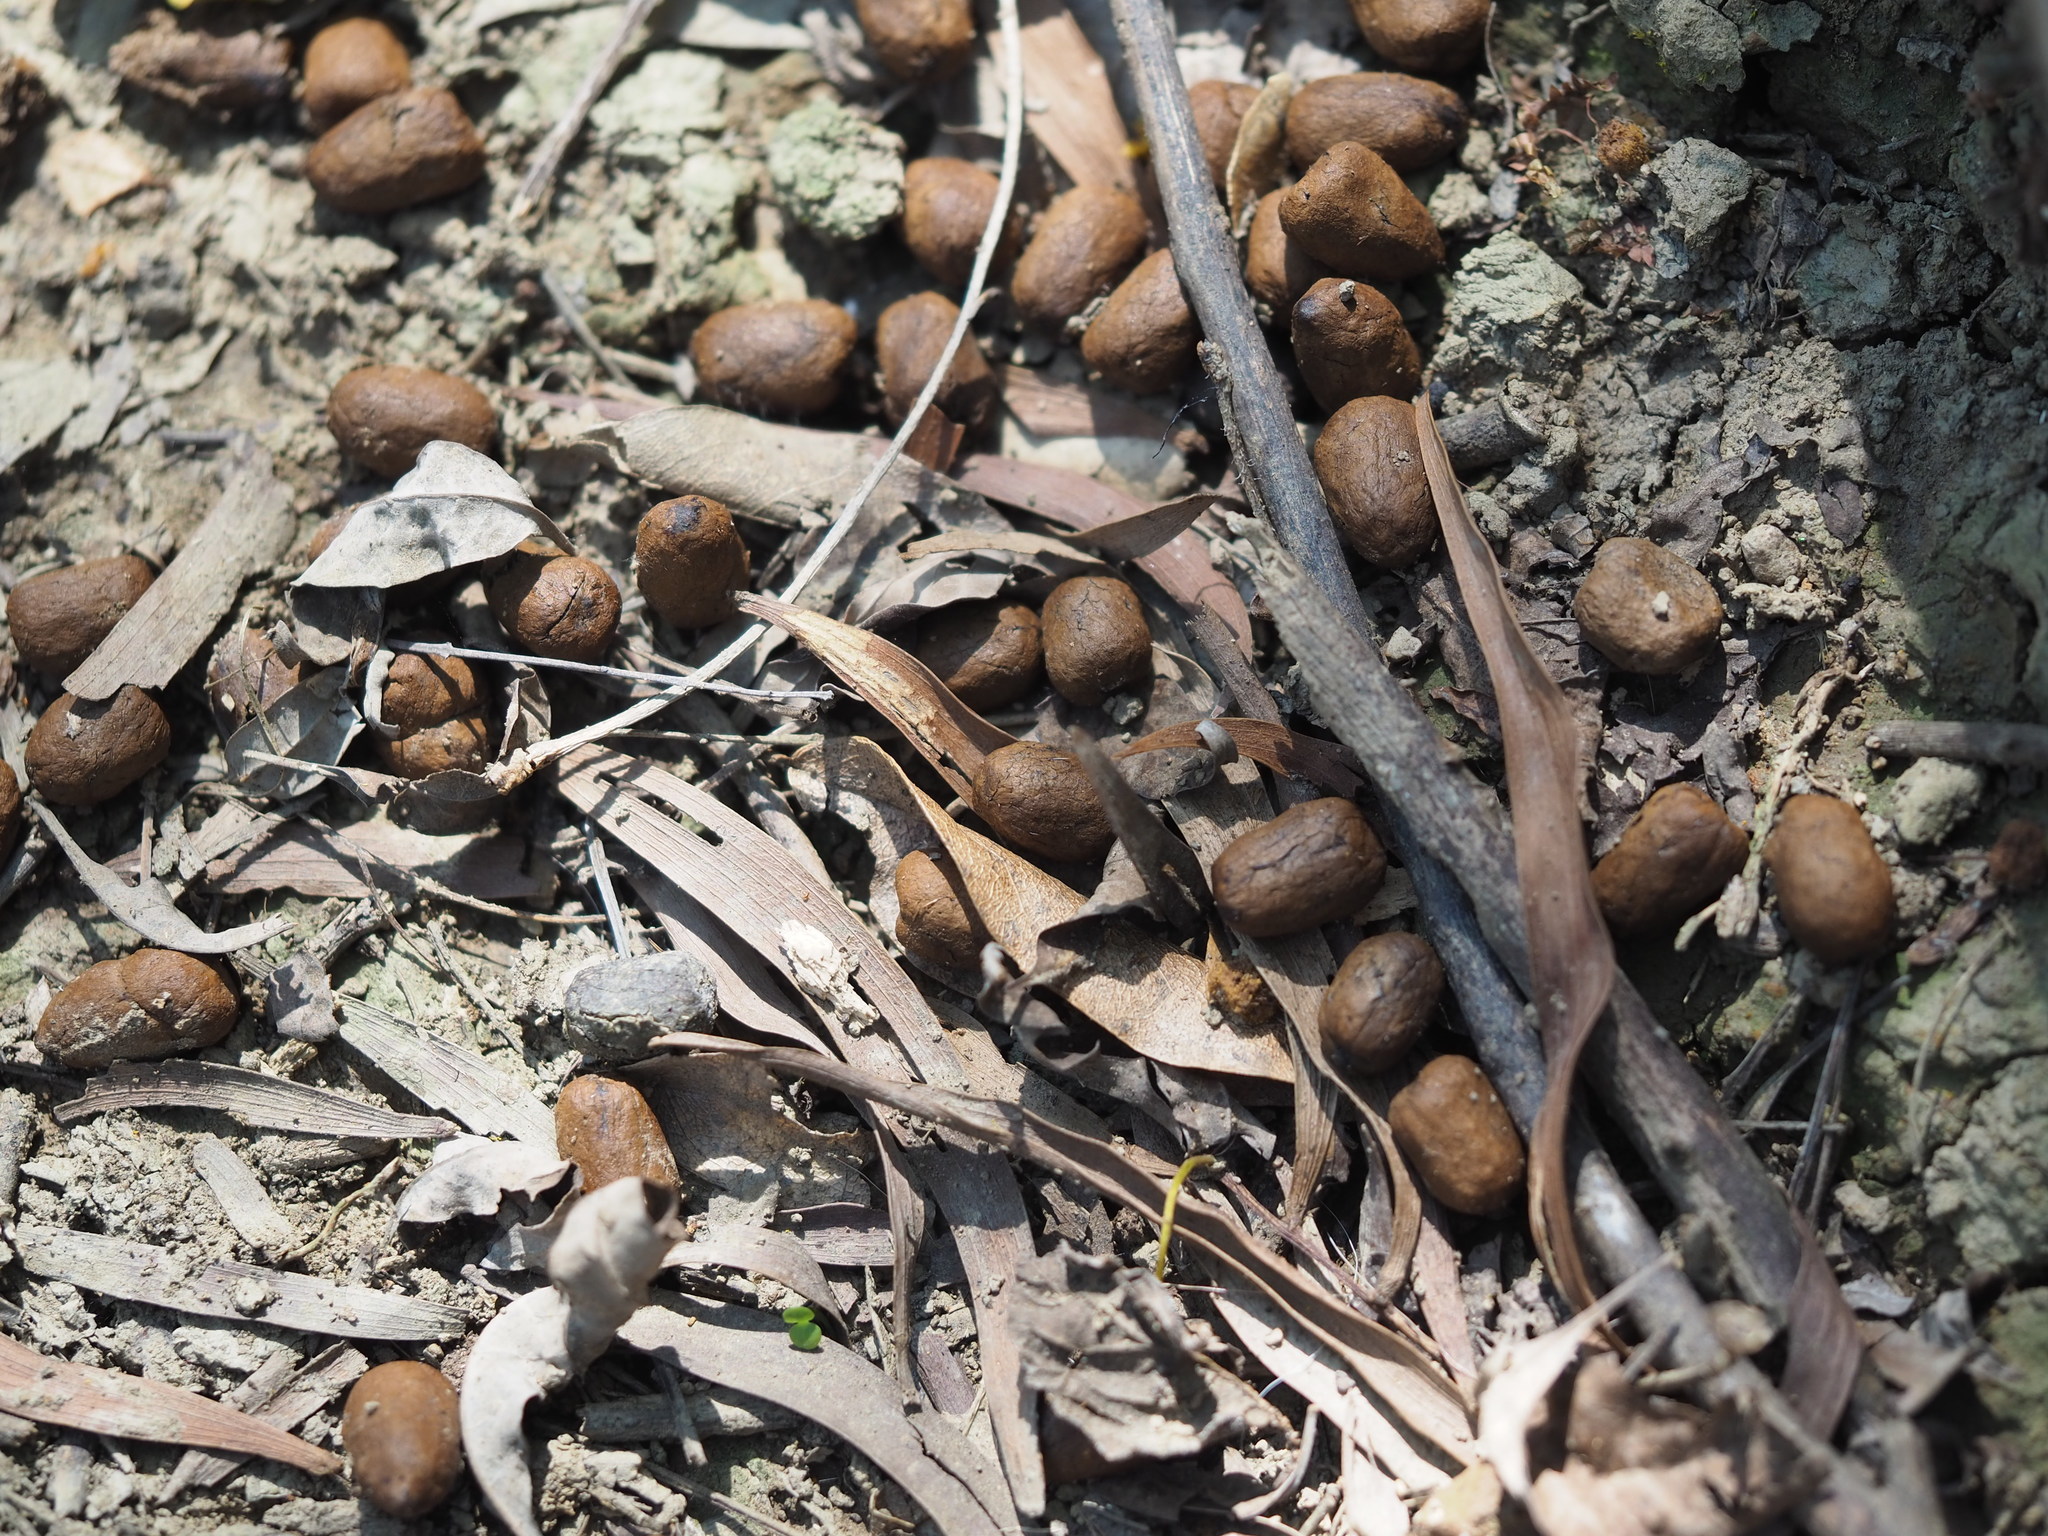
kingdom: Animalia
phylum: Chordata
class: Mammalia
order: Artiodactyla
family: Cervidae
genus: Cervus
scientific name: Cervus nippon
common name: Sika deer
